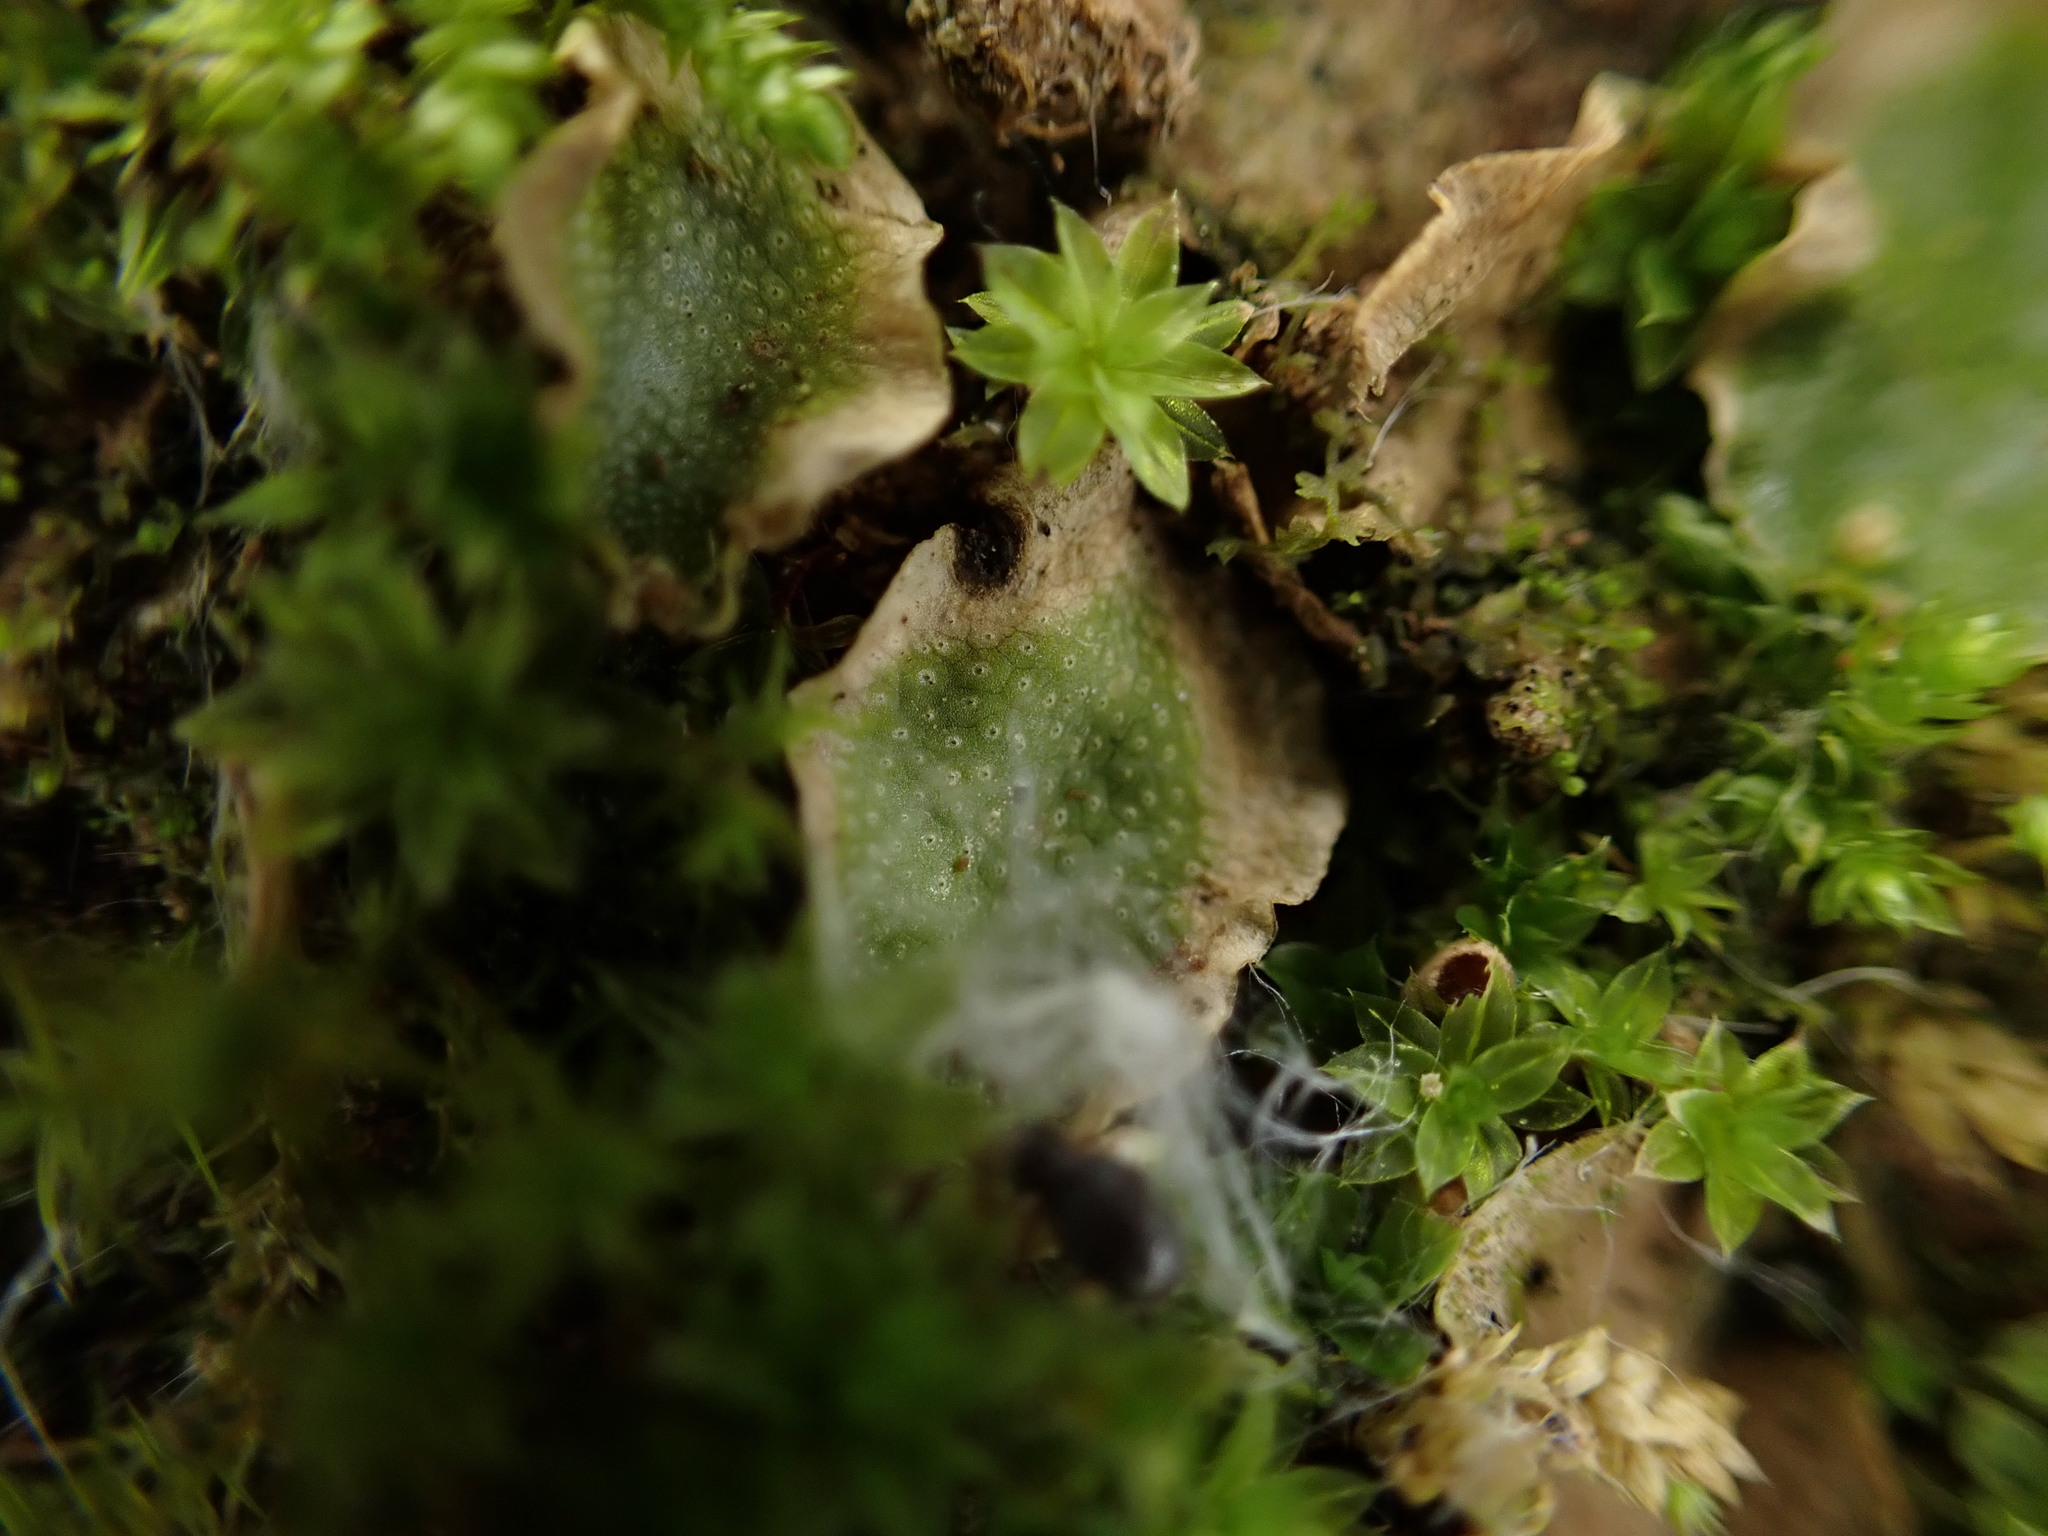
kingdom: Plantae
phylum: Marchantiophyta
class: Marchantiopsida
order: Lunulariales
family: Lunulariaceae
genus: Lunularia
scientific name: Lunularia cruciata
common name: Crescent-cup liverwort
